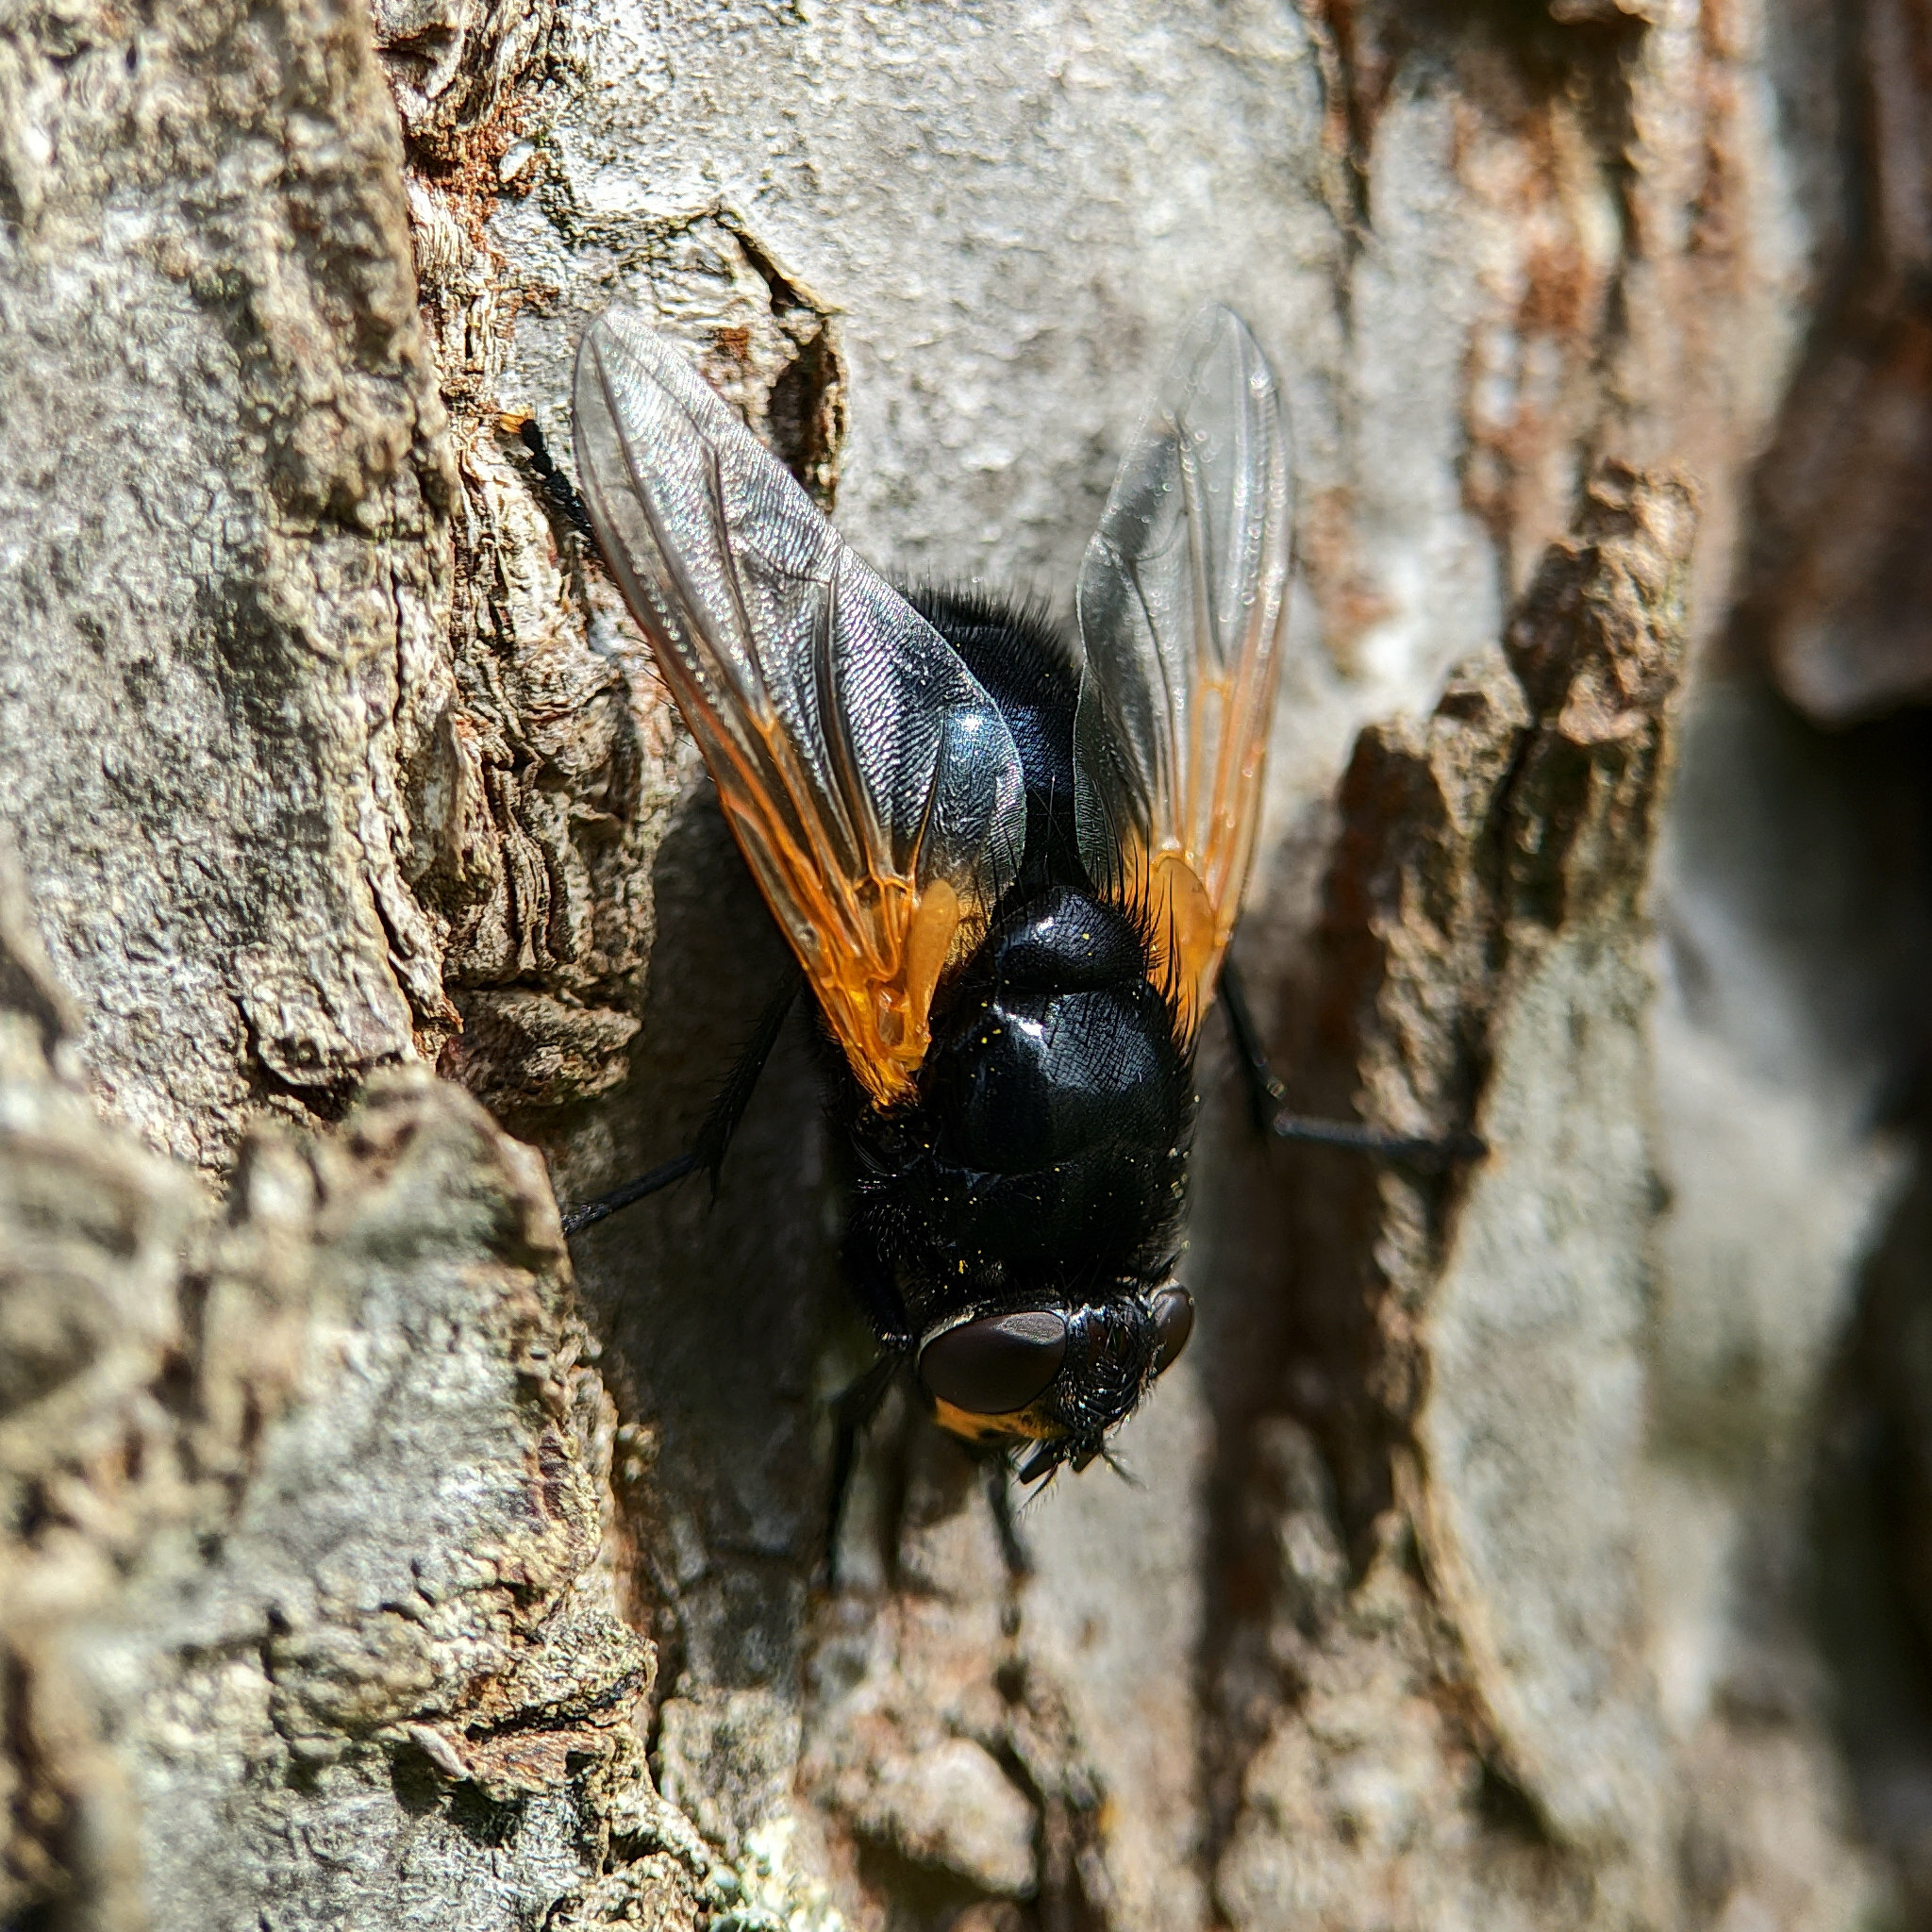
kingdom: Animalia
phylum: Arthropoda
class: Insecta
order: Diptera
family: Muscidae
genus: Mesembrina
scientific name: Mesembrina meridiana
